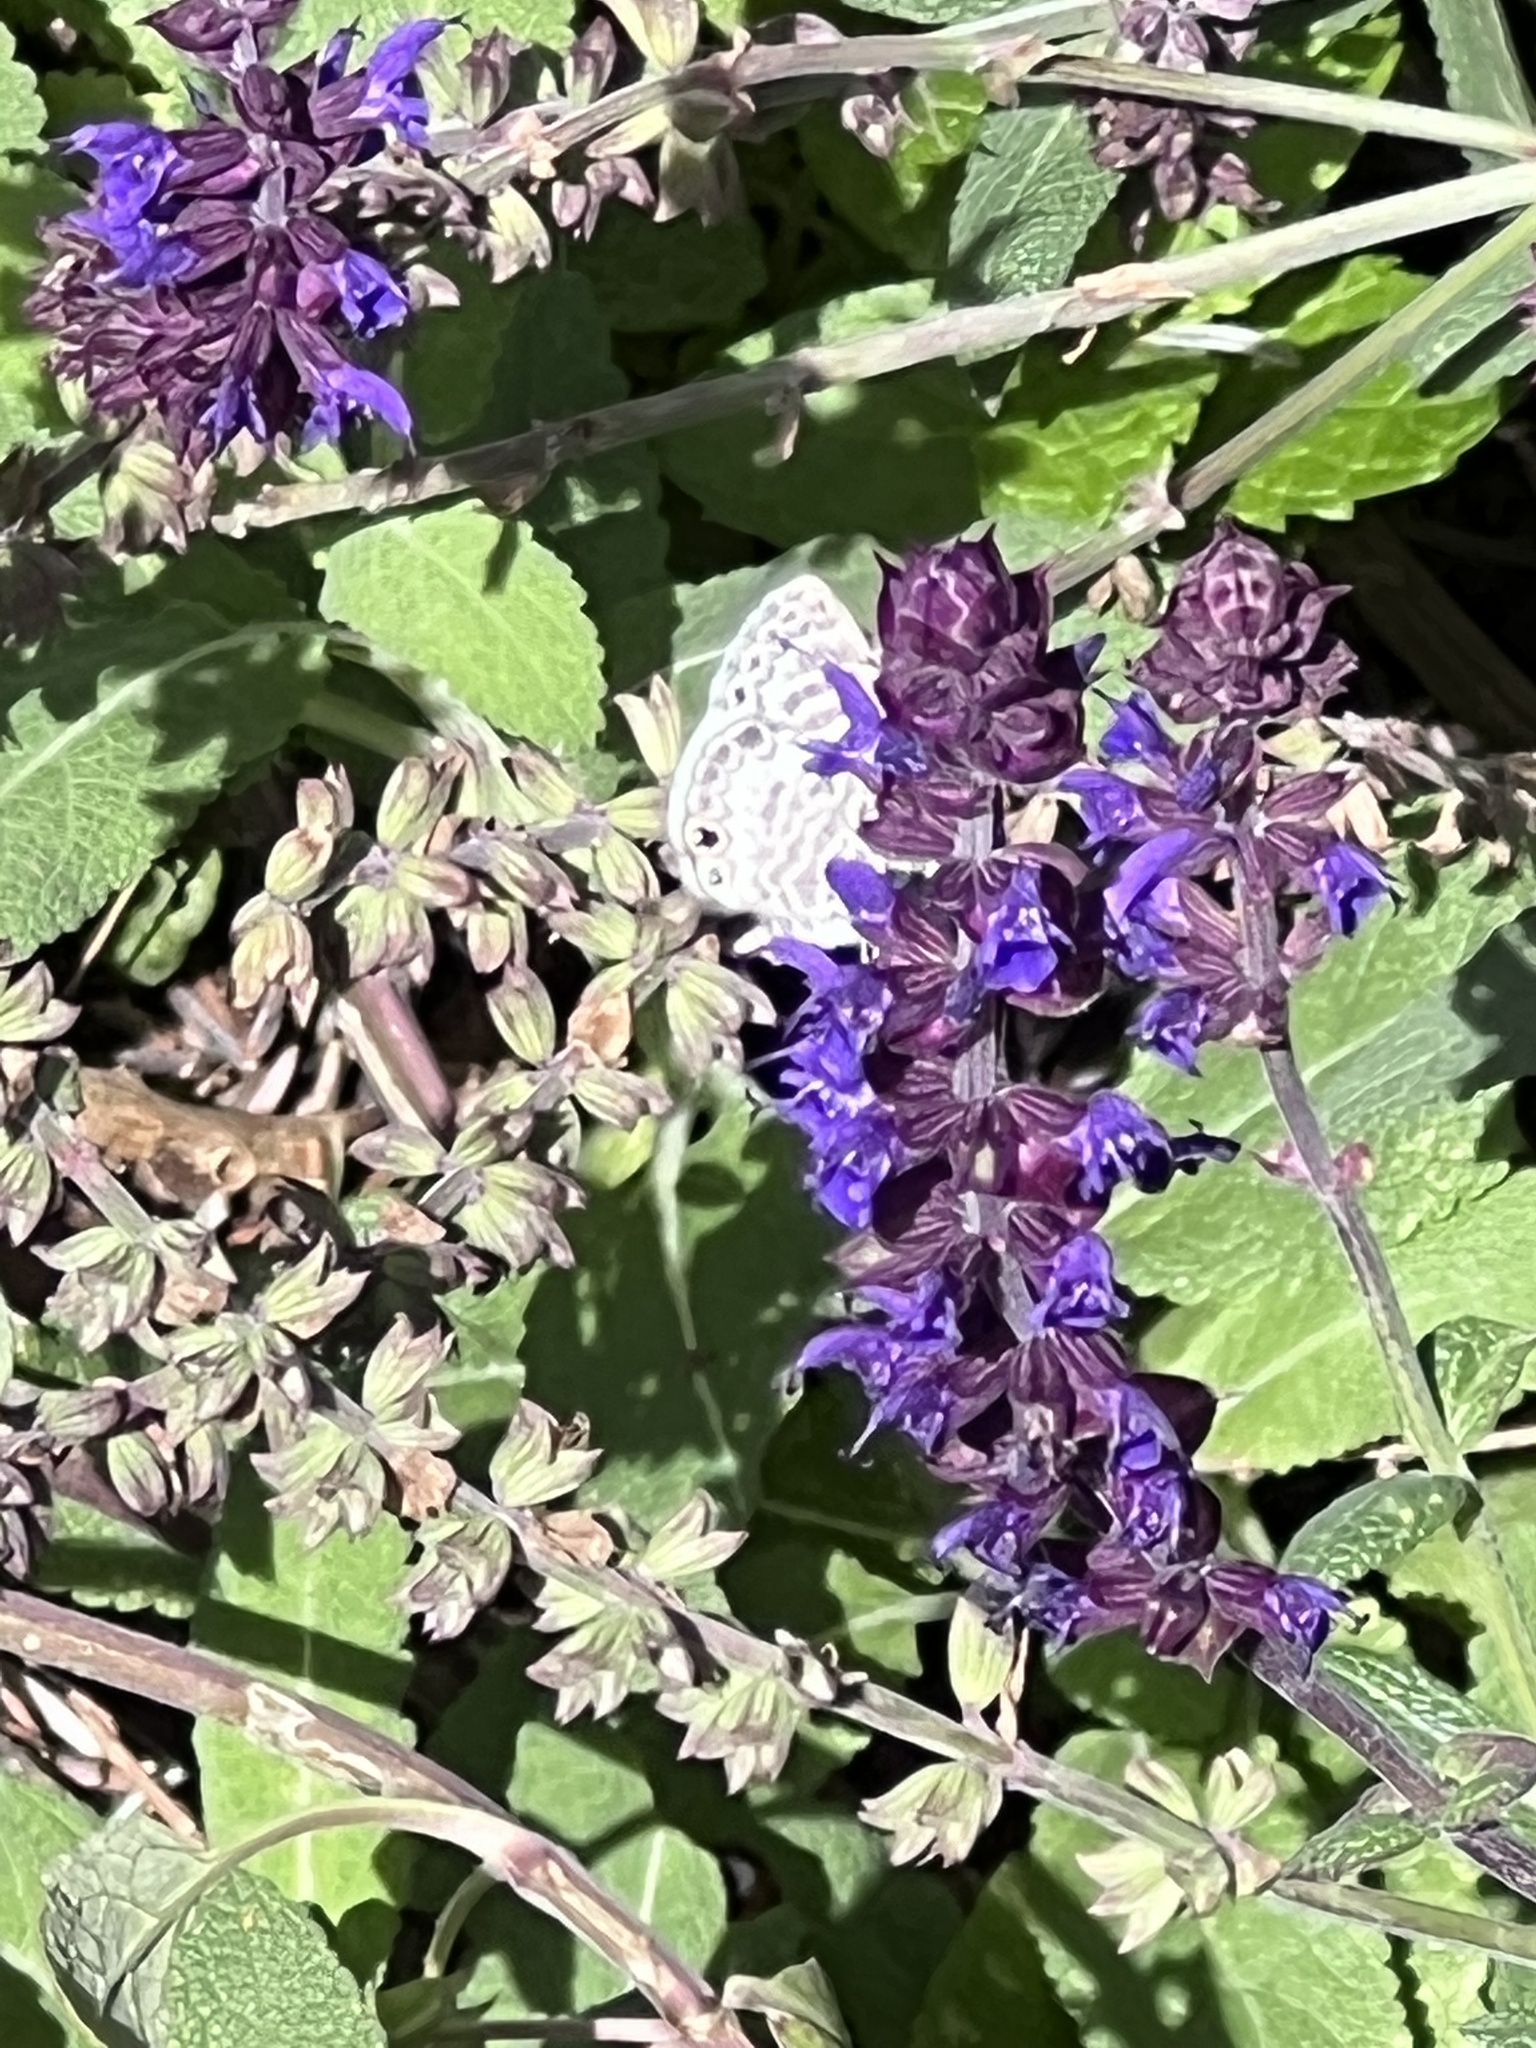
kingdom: Animalia
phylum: Arthropoda
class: Insecta
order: Lepidoptera
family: Lycaenidae
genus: Leptotes
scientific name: Leptotes marina
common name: Marine blue
